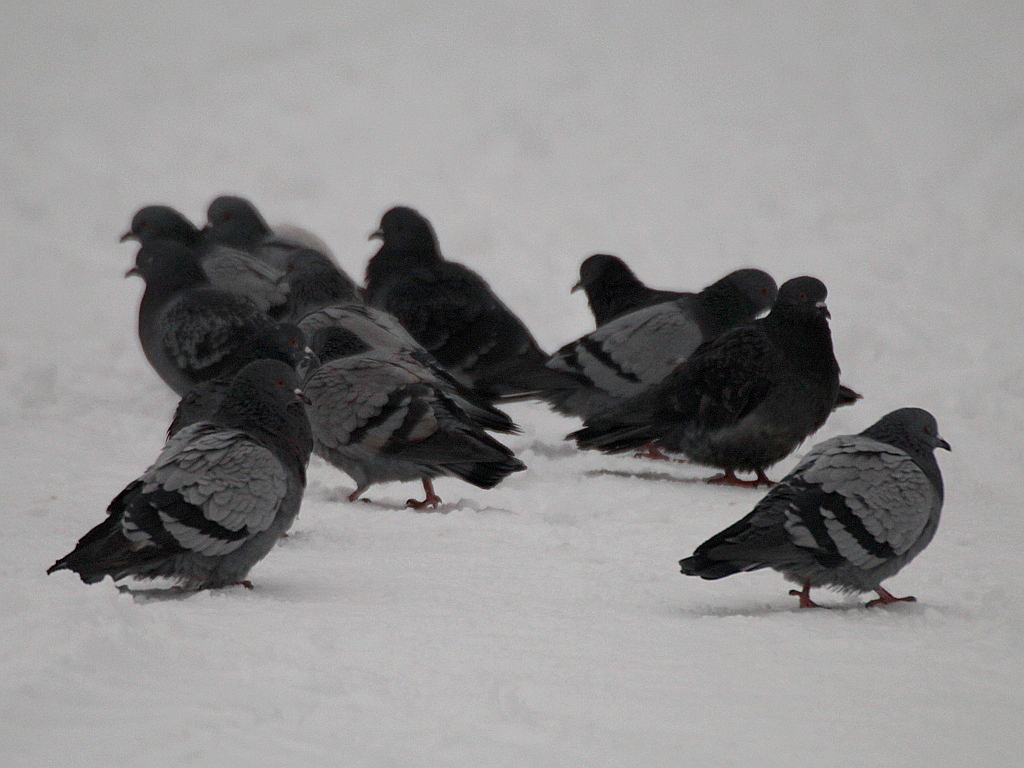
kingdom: Animalia
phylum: Chordata
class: Aves
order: Columbiformes
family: Columbidae
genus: Columba
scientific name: Columba livia
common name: Rock pigeon
